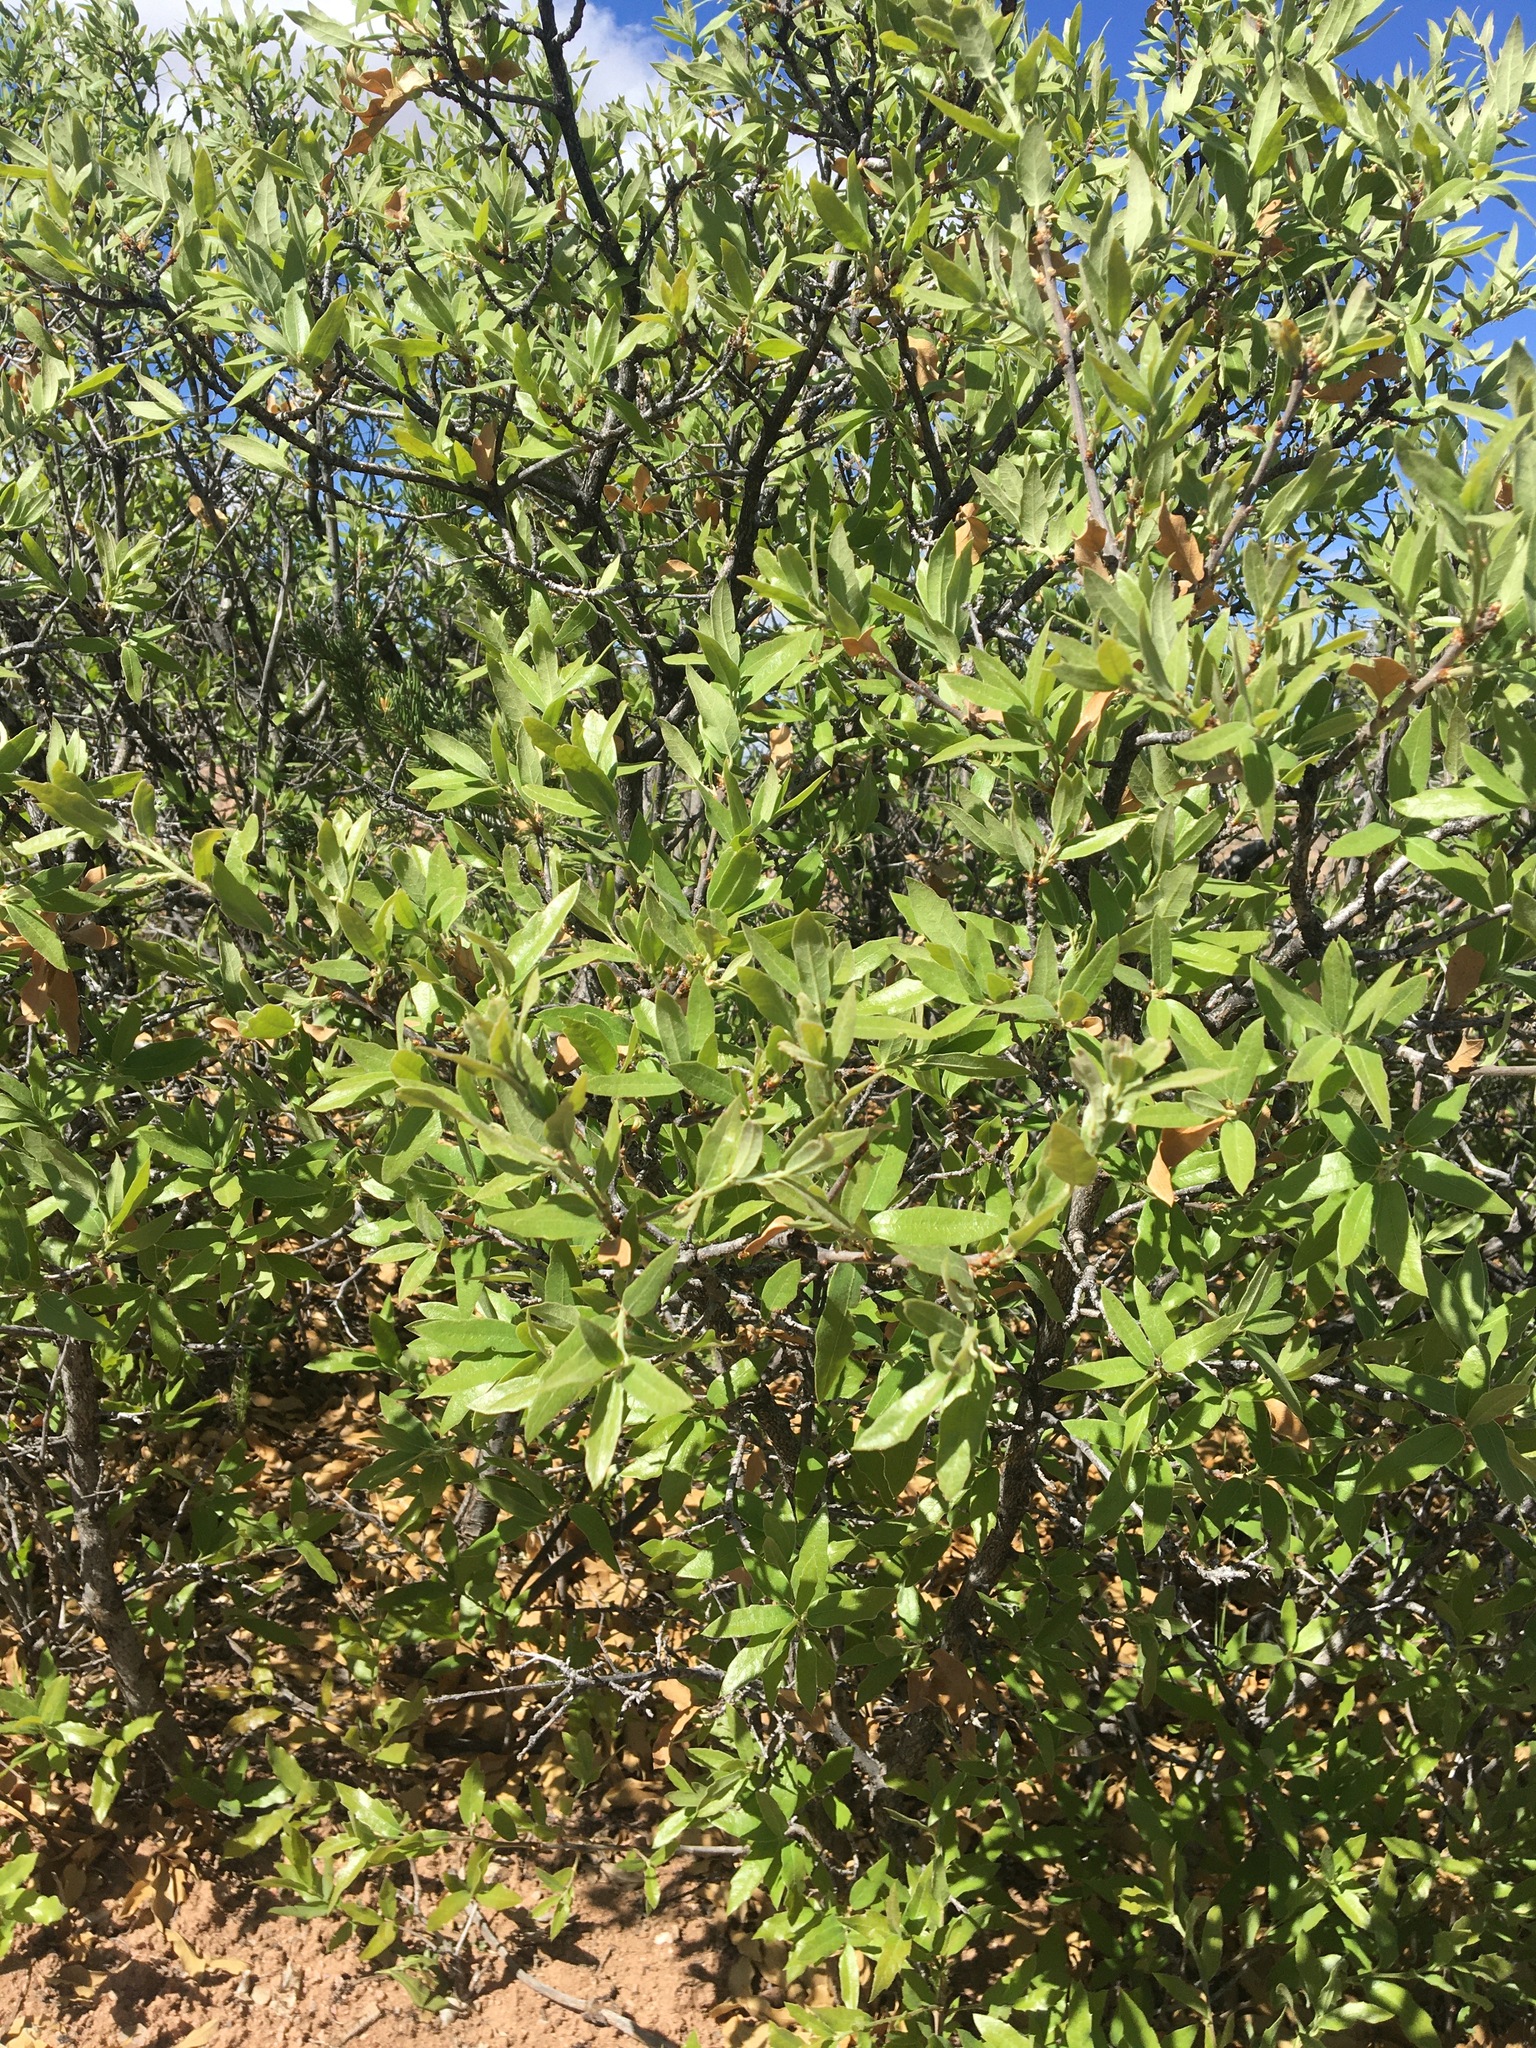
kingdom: Plantae
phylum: Tracheophyta
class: Magnoliopsida
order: Fagales
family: Fagaceae
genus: Quercus
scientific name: Quercus undulata
